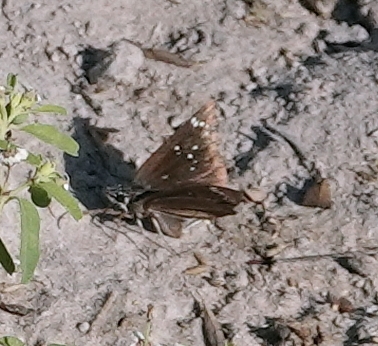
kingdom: Animalia
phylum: Arthropoda
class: Insecta
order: Lepidoptera
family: Hesperiidae
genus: Pholisora
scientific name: Pholisora catullus
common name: Common sootywing
